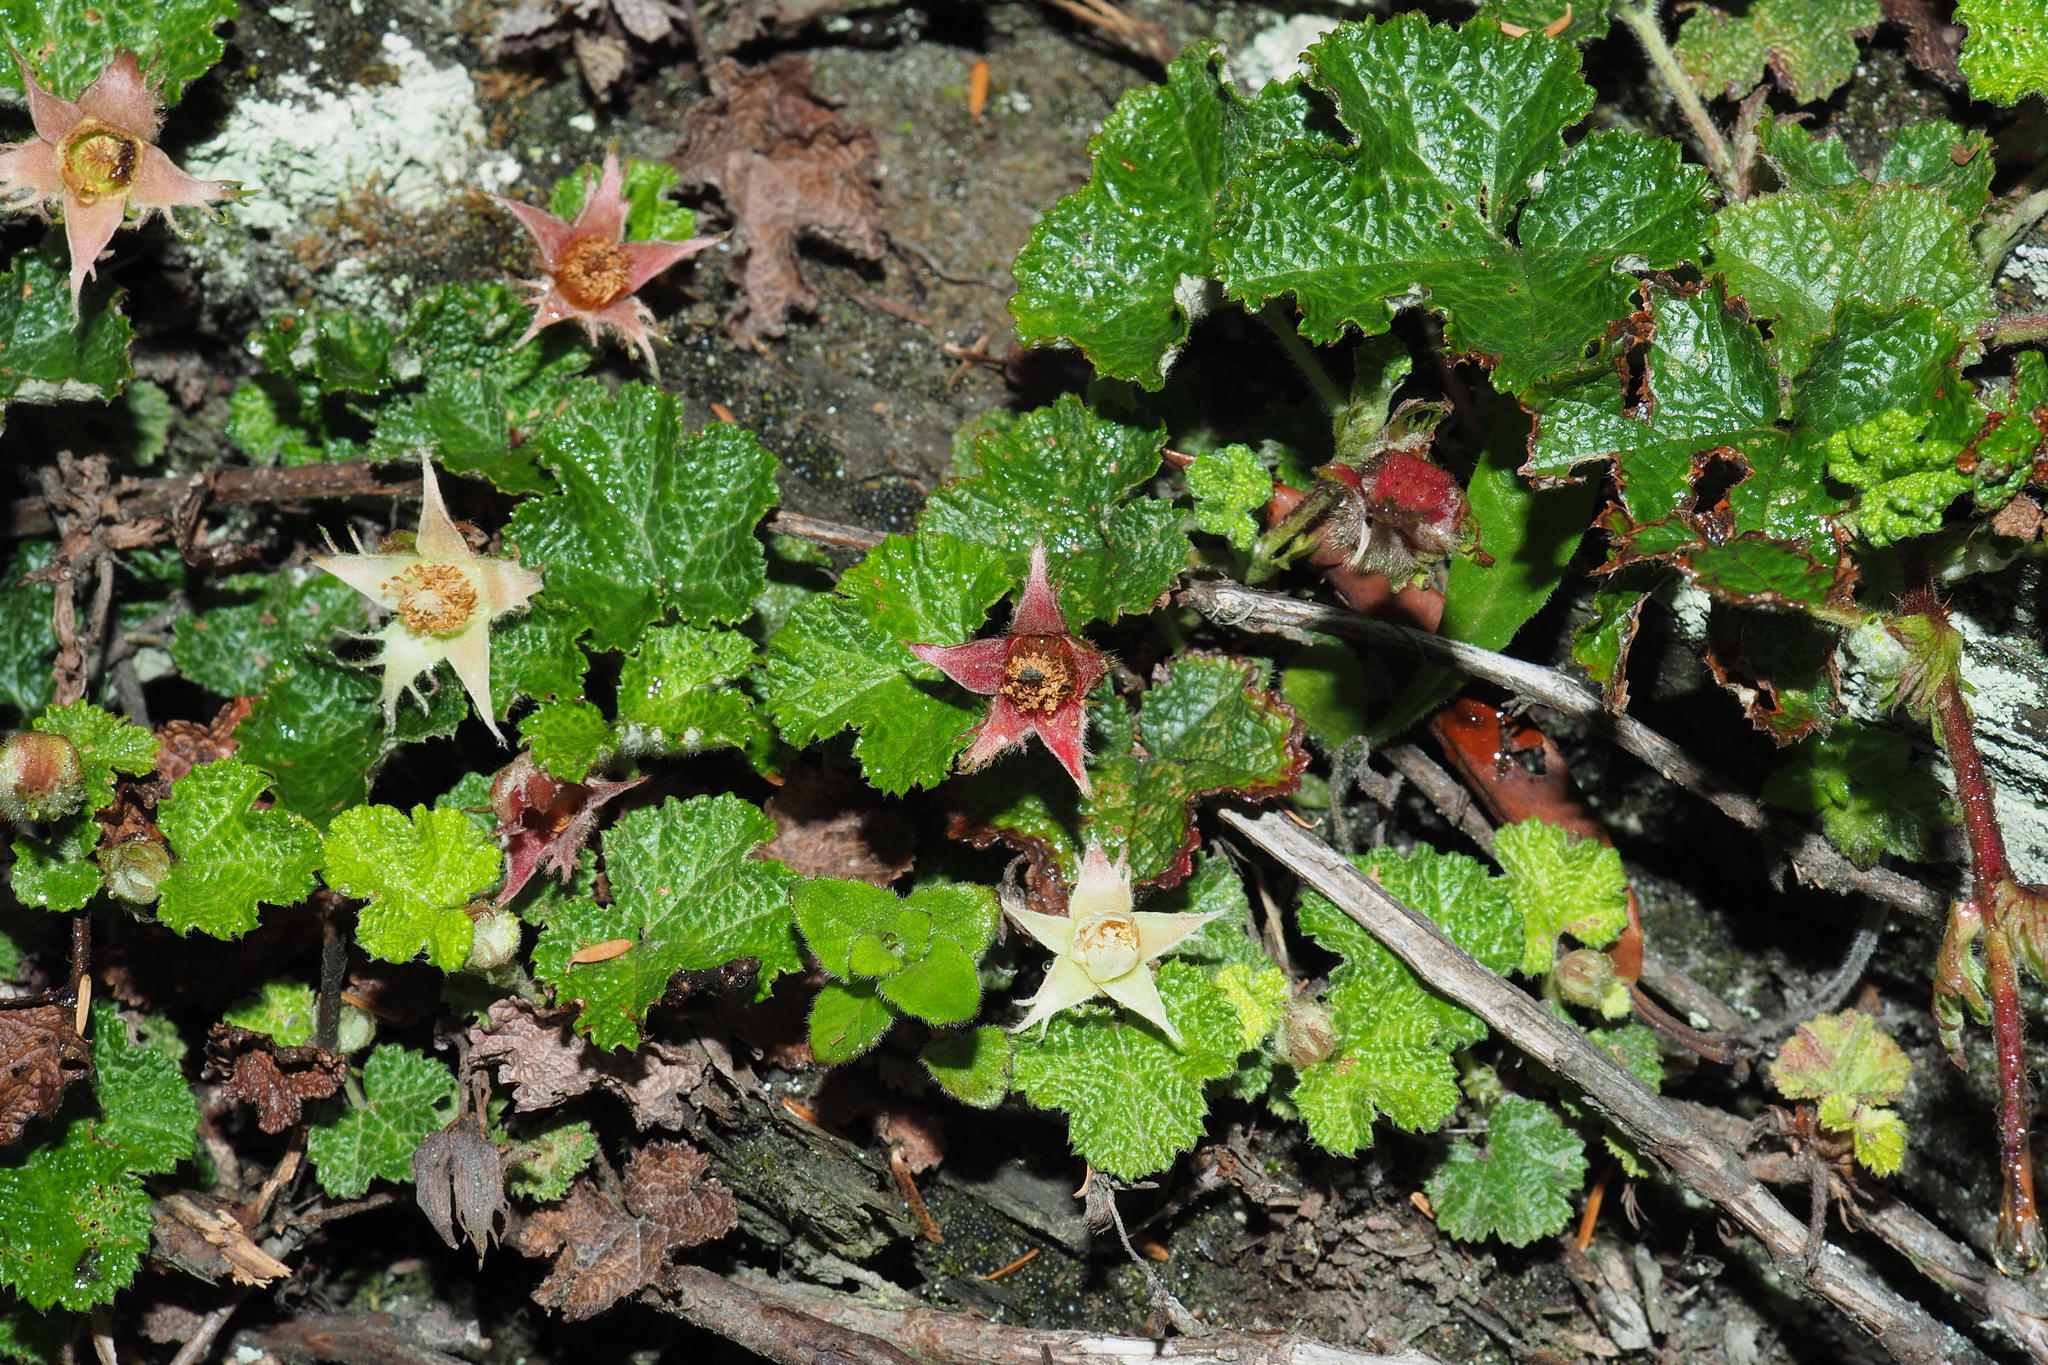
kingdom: Plantae
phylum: Tracheophyta
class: Magnoliopsida
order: Rosales
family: Rosaceae
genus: Rubus
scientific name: Rubus rolfei
